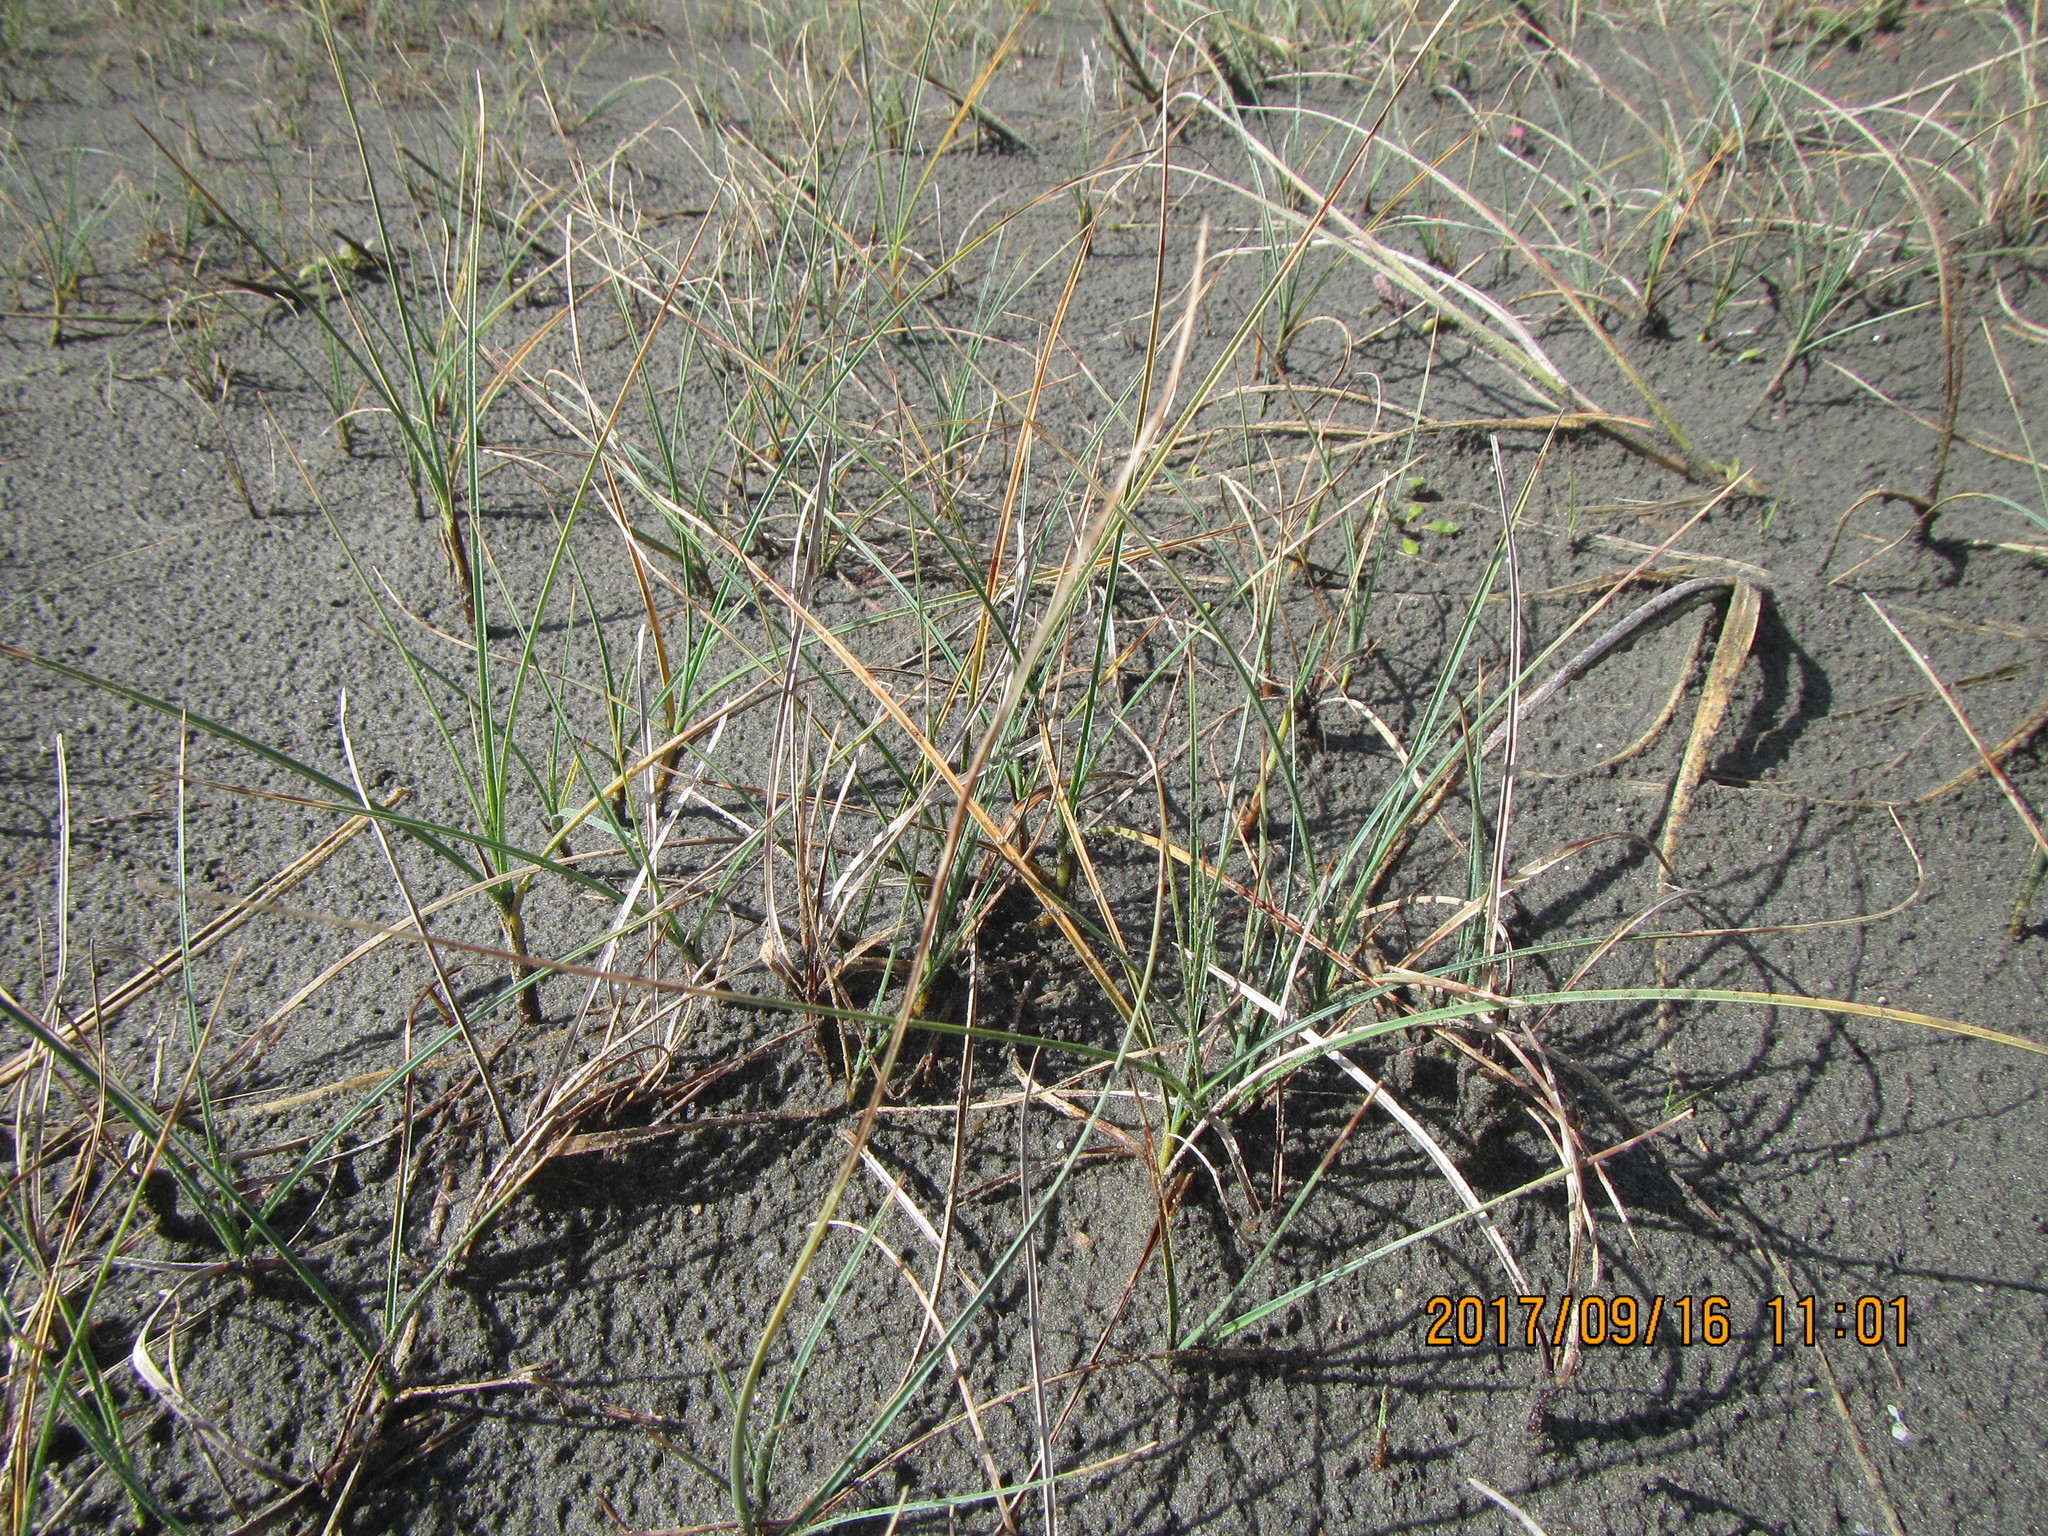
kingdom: Plantae
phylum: Tracheophyta
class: Liliopsida
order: Poales
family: Cyperaceae
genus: Carex
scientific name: Carex pumila
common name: Dwarf sedge
